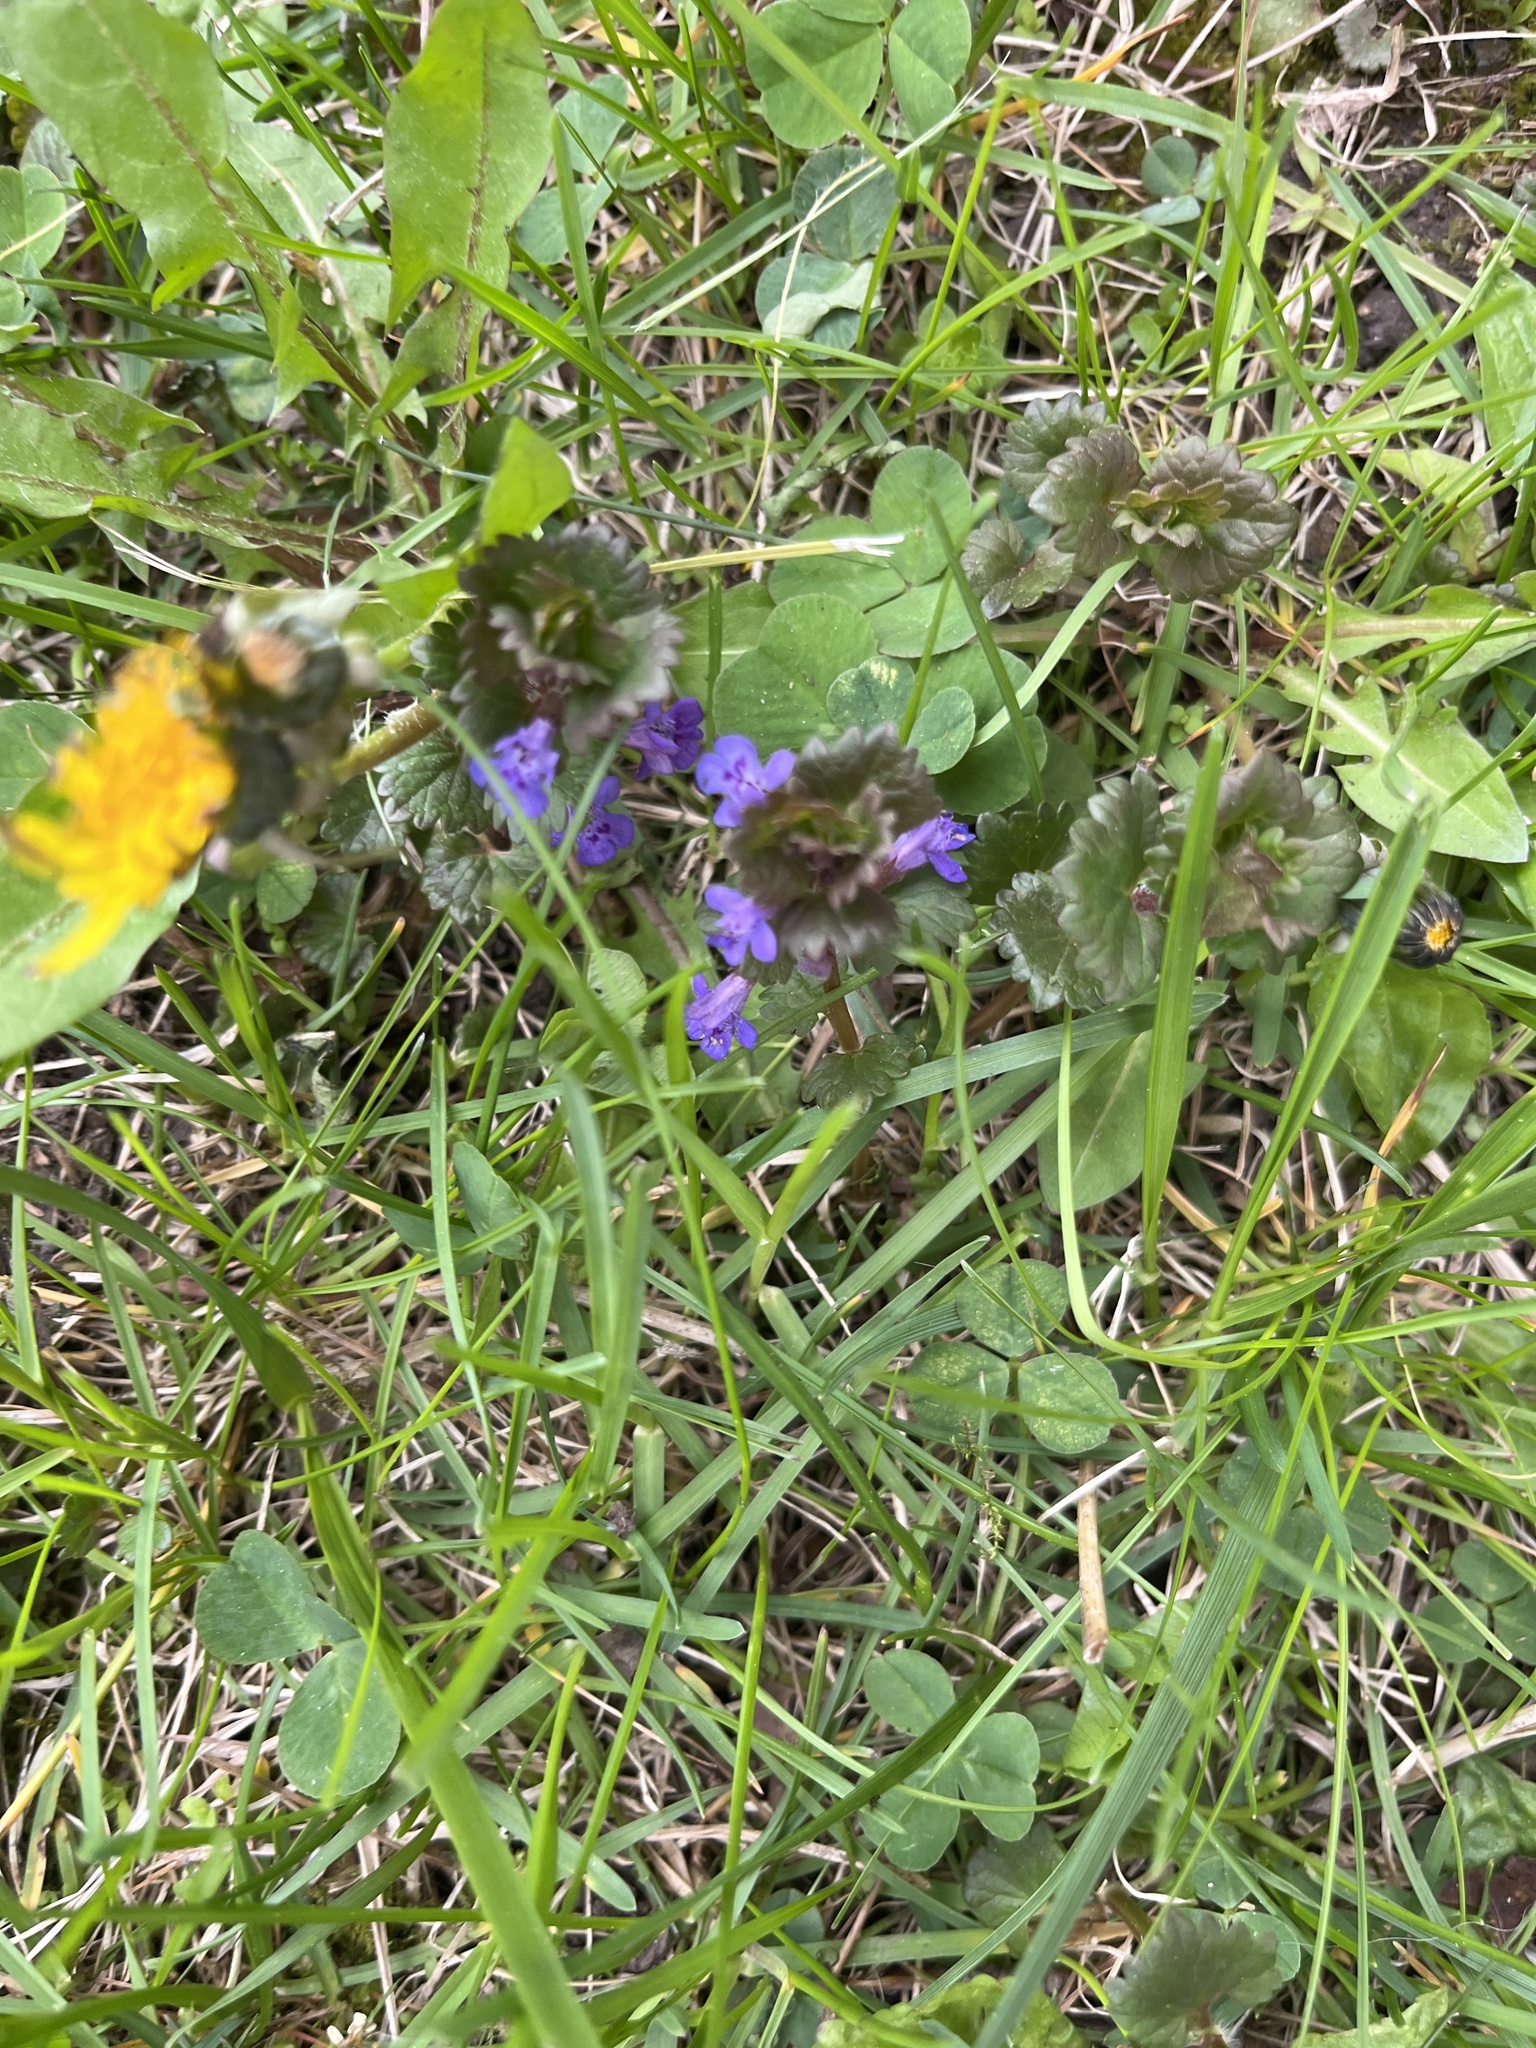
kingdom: Plantae
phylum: Tracheophyta
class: Magnoliopsida
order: Lamiales
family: Lamiaceae
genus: Glechoma
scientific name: Glechoma hederacea
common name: Ground ivy
